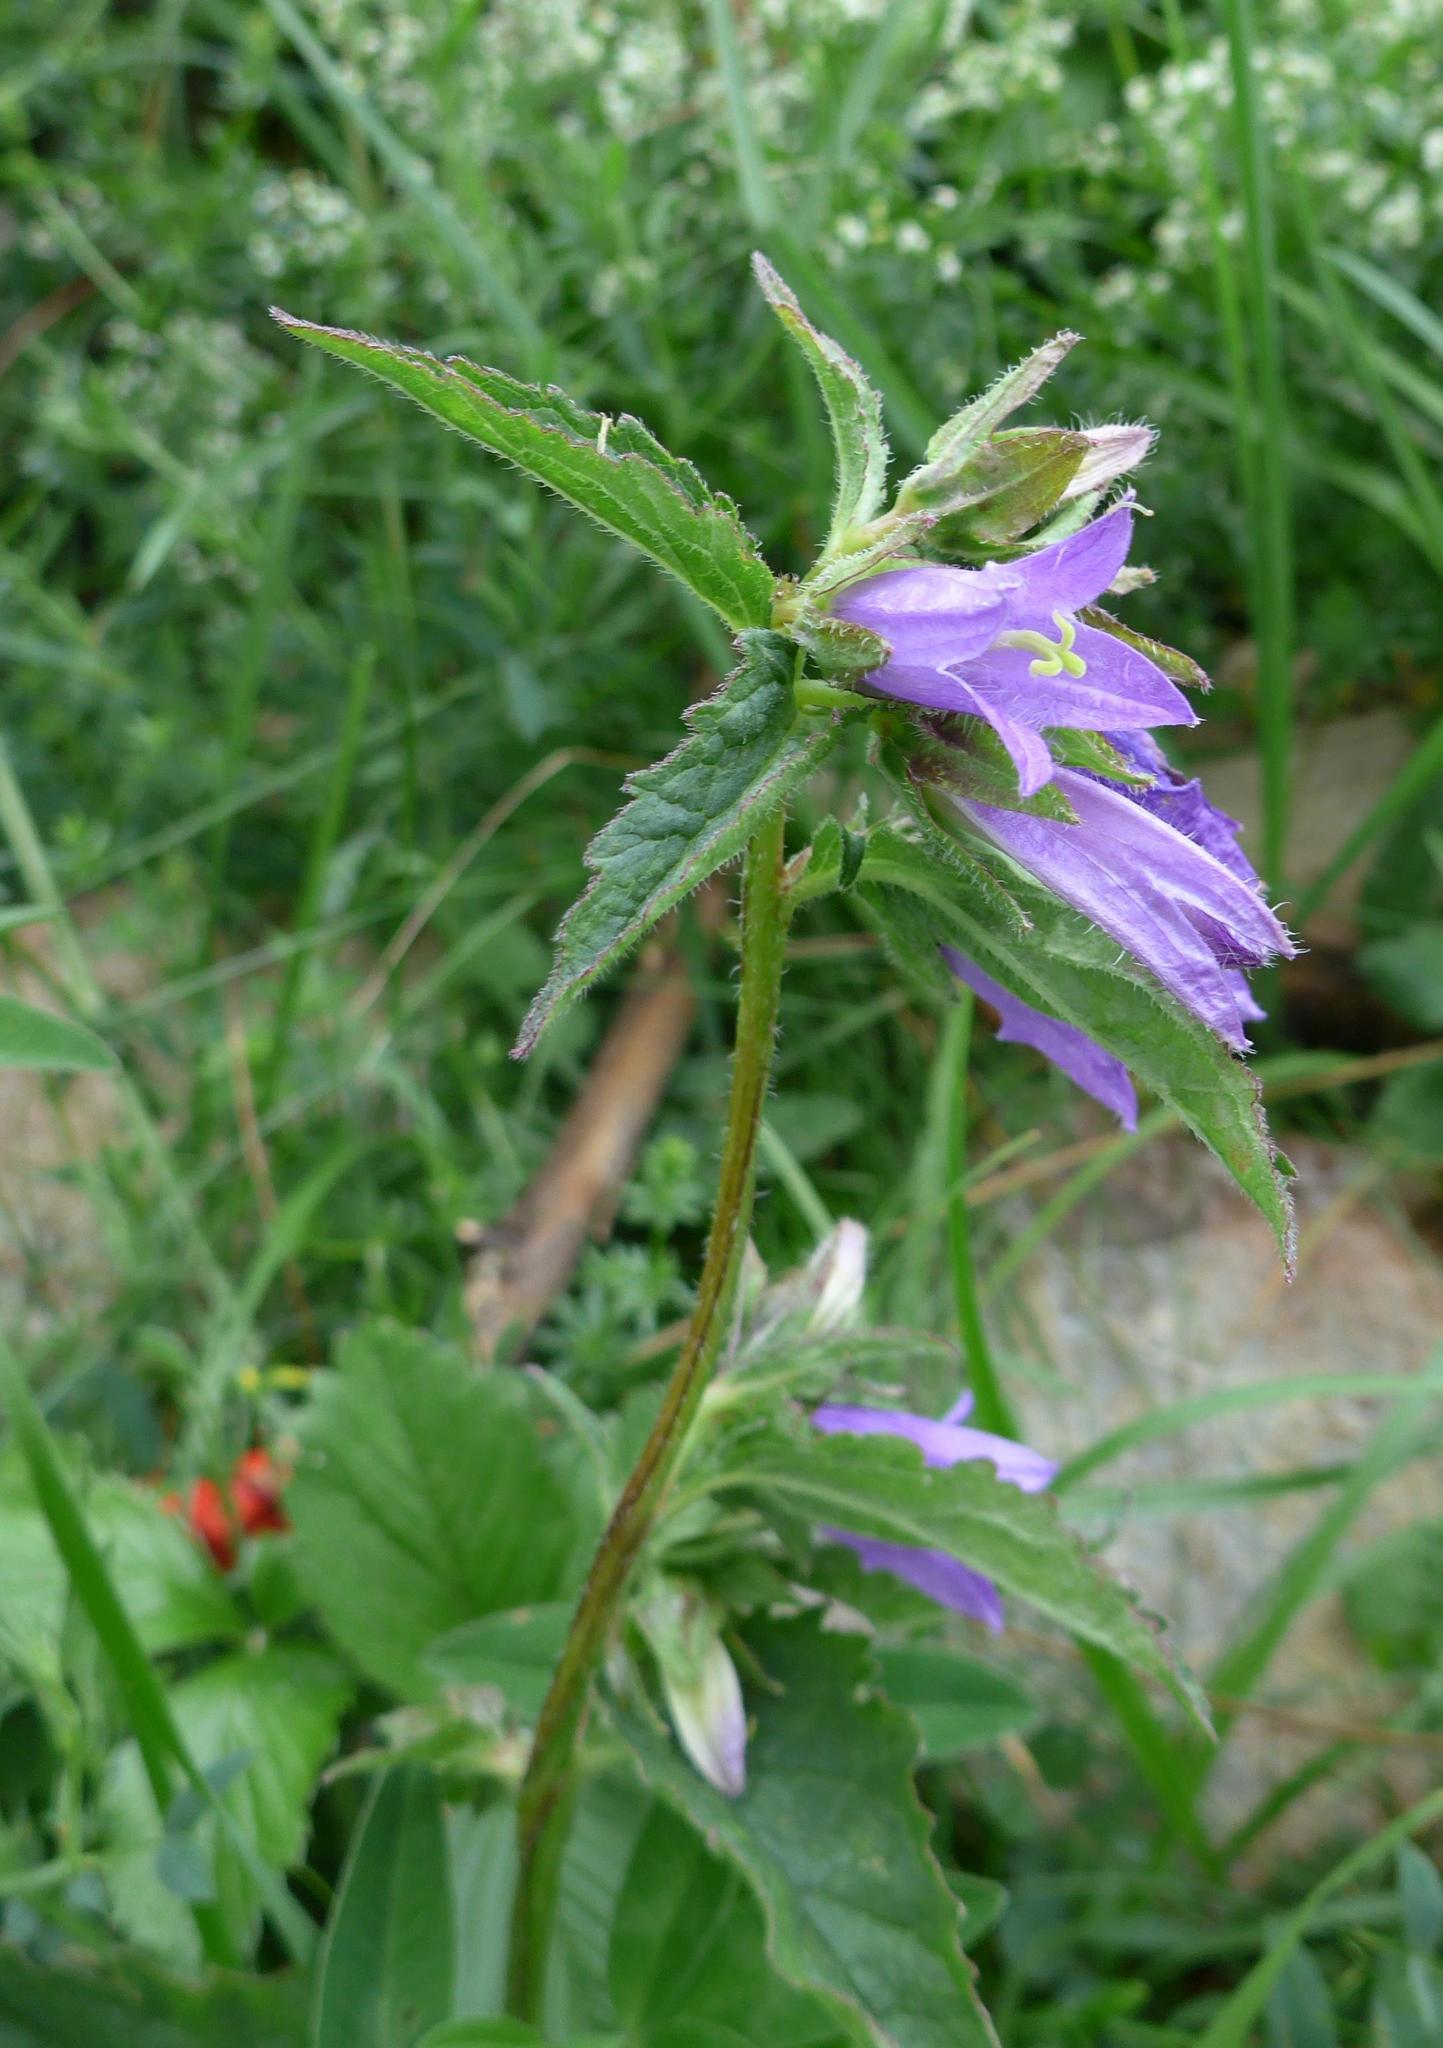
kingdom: Plantae
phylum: Tracheophyta
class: Magnoliopsida
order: Asterales
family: Campanulaceae
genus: Campanula
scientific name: Campanula trachelium
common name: Nettle-leaved bellflower
